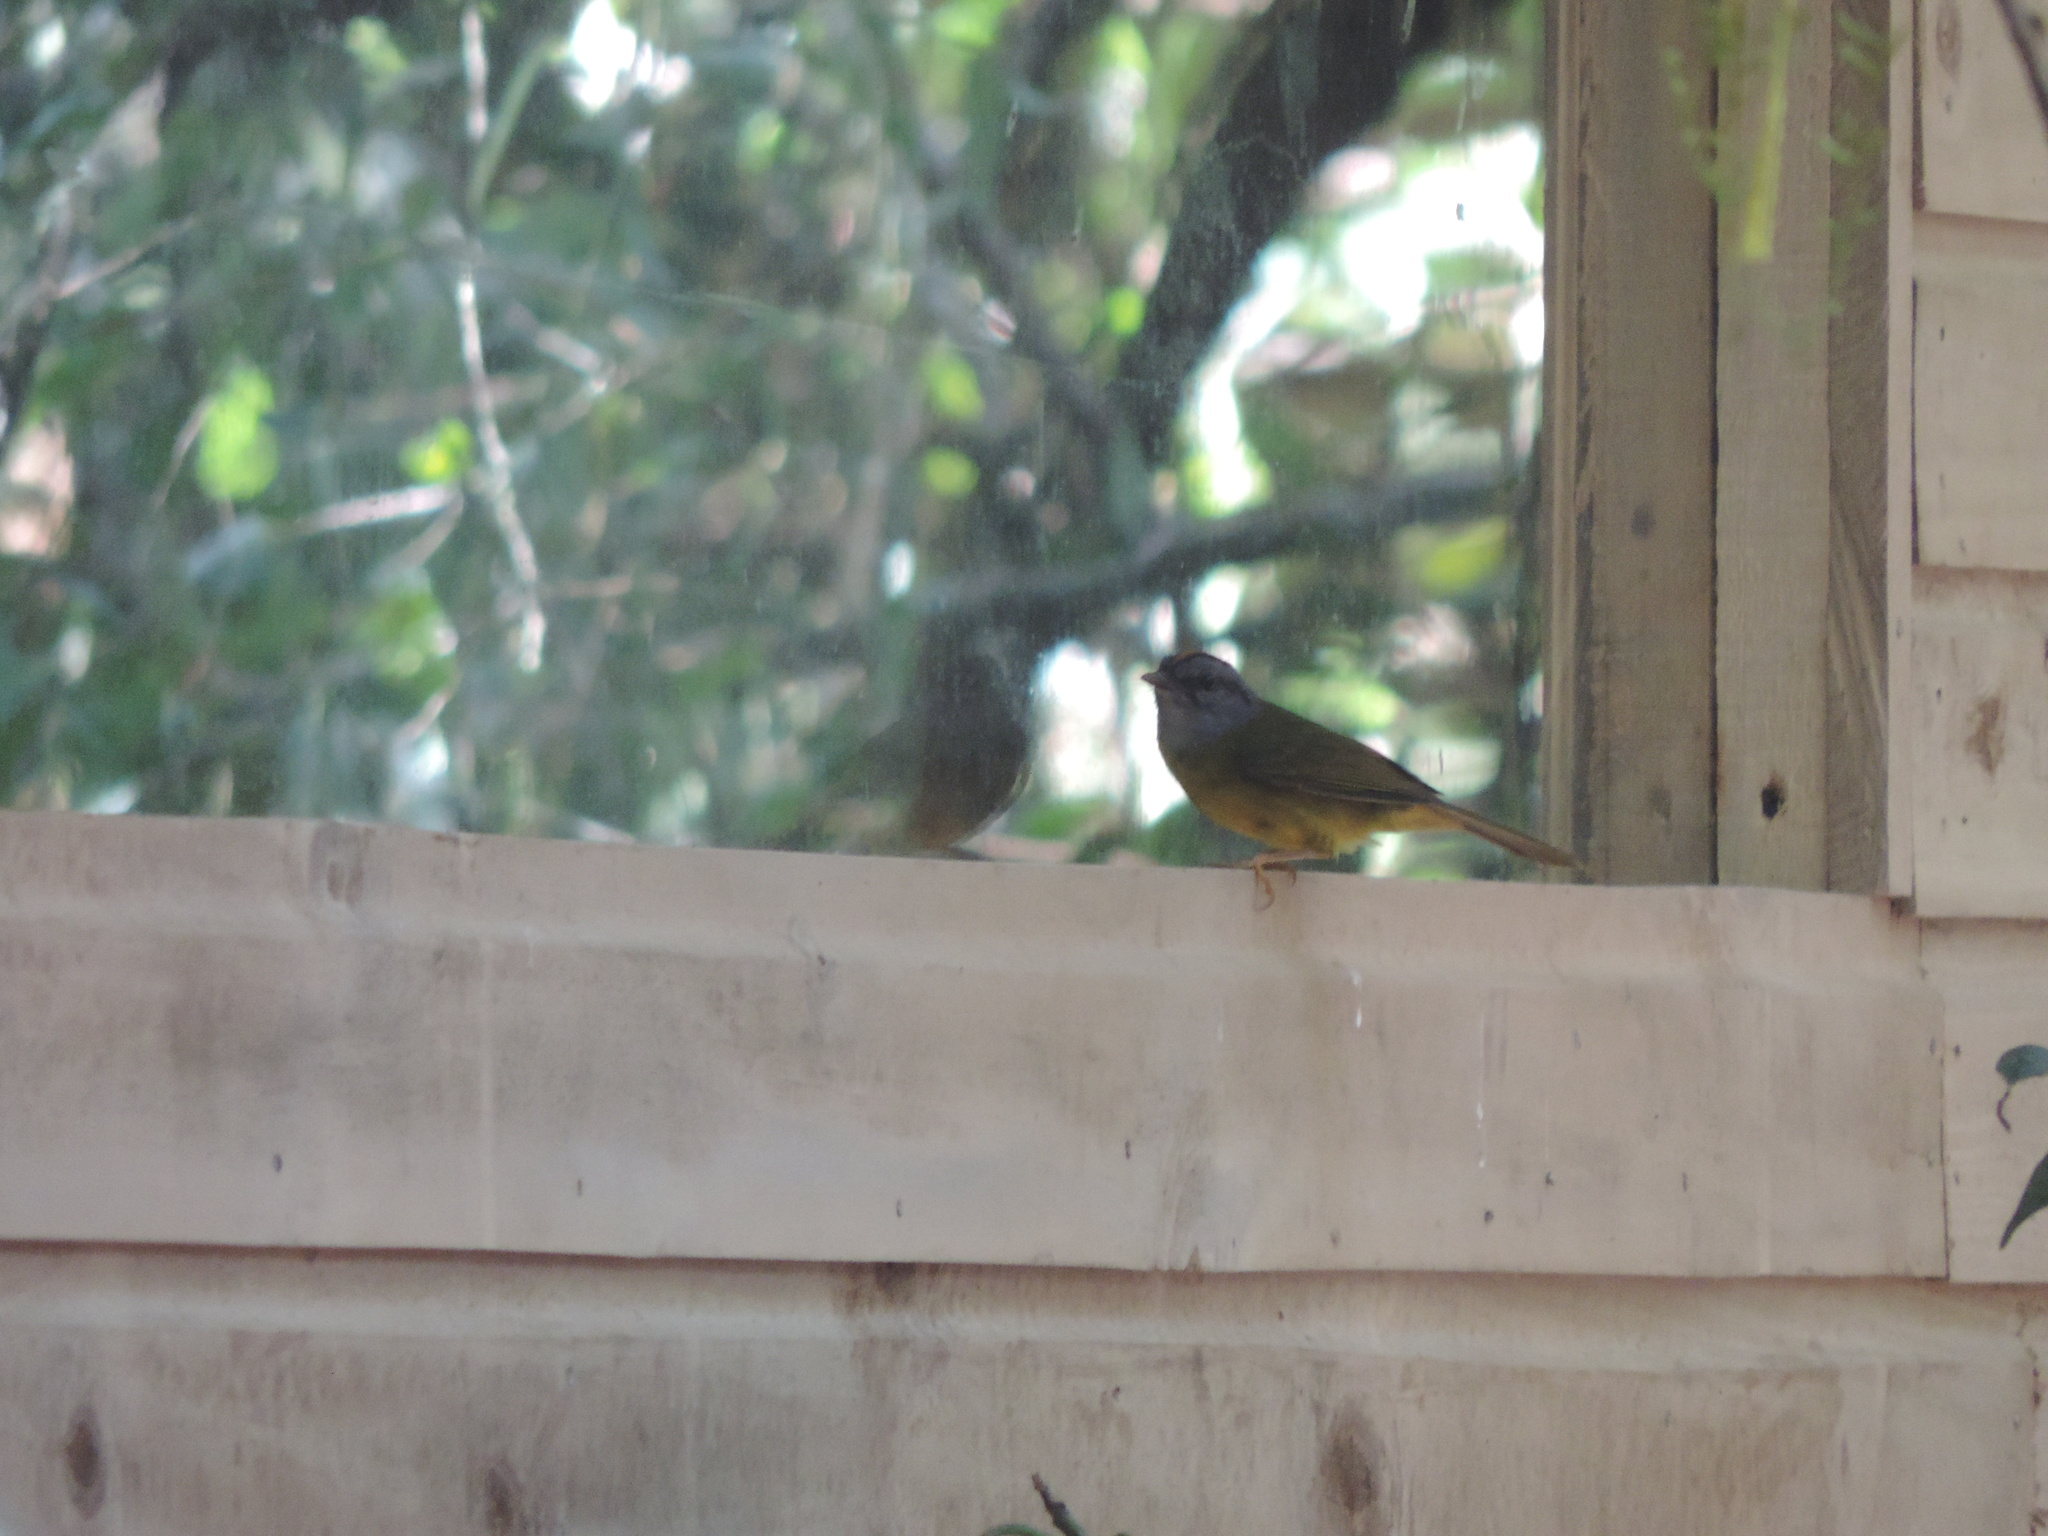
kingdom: Animalia
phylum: Chordata
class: Aves
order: Passeriformes
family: Parulidae
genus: Myiothlypis
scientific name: Myiothlypis coronata
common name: Russet-crowned warbler
